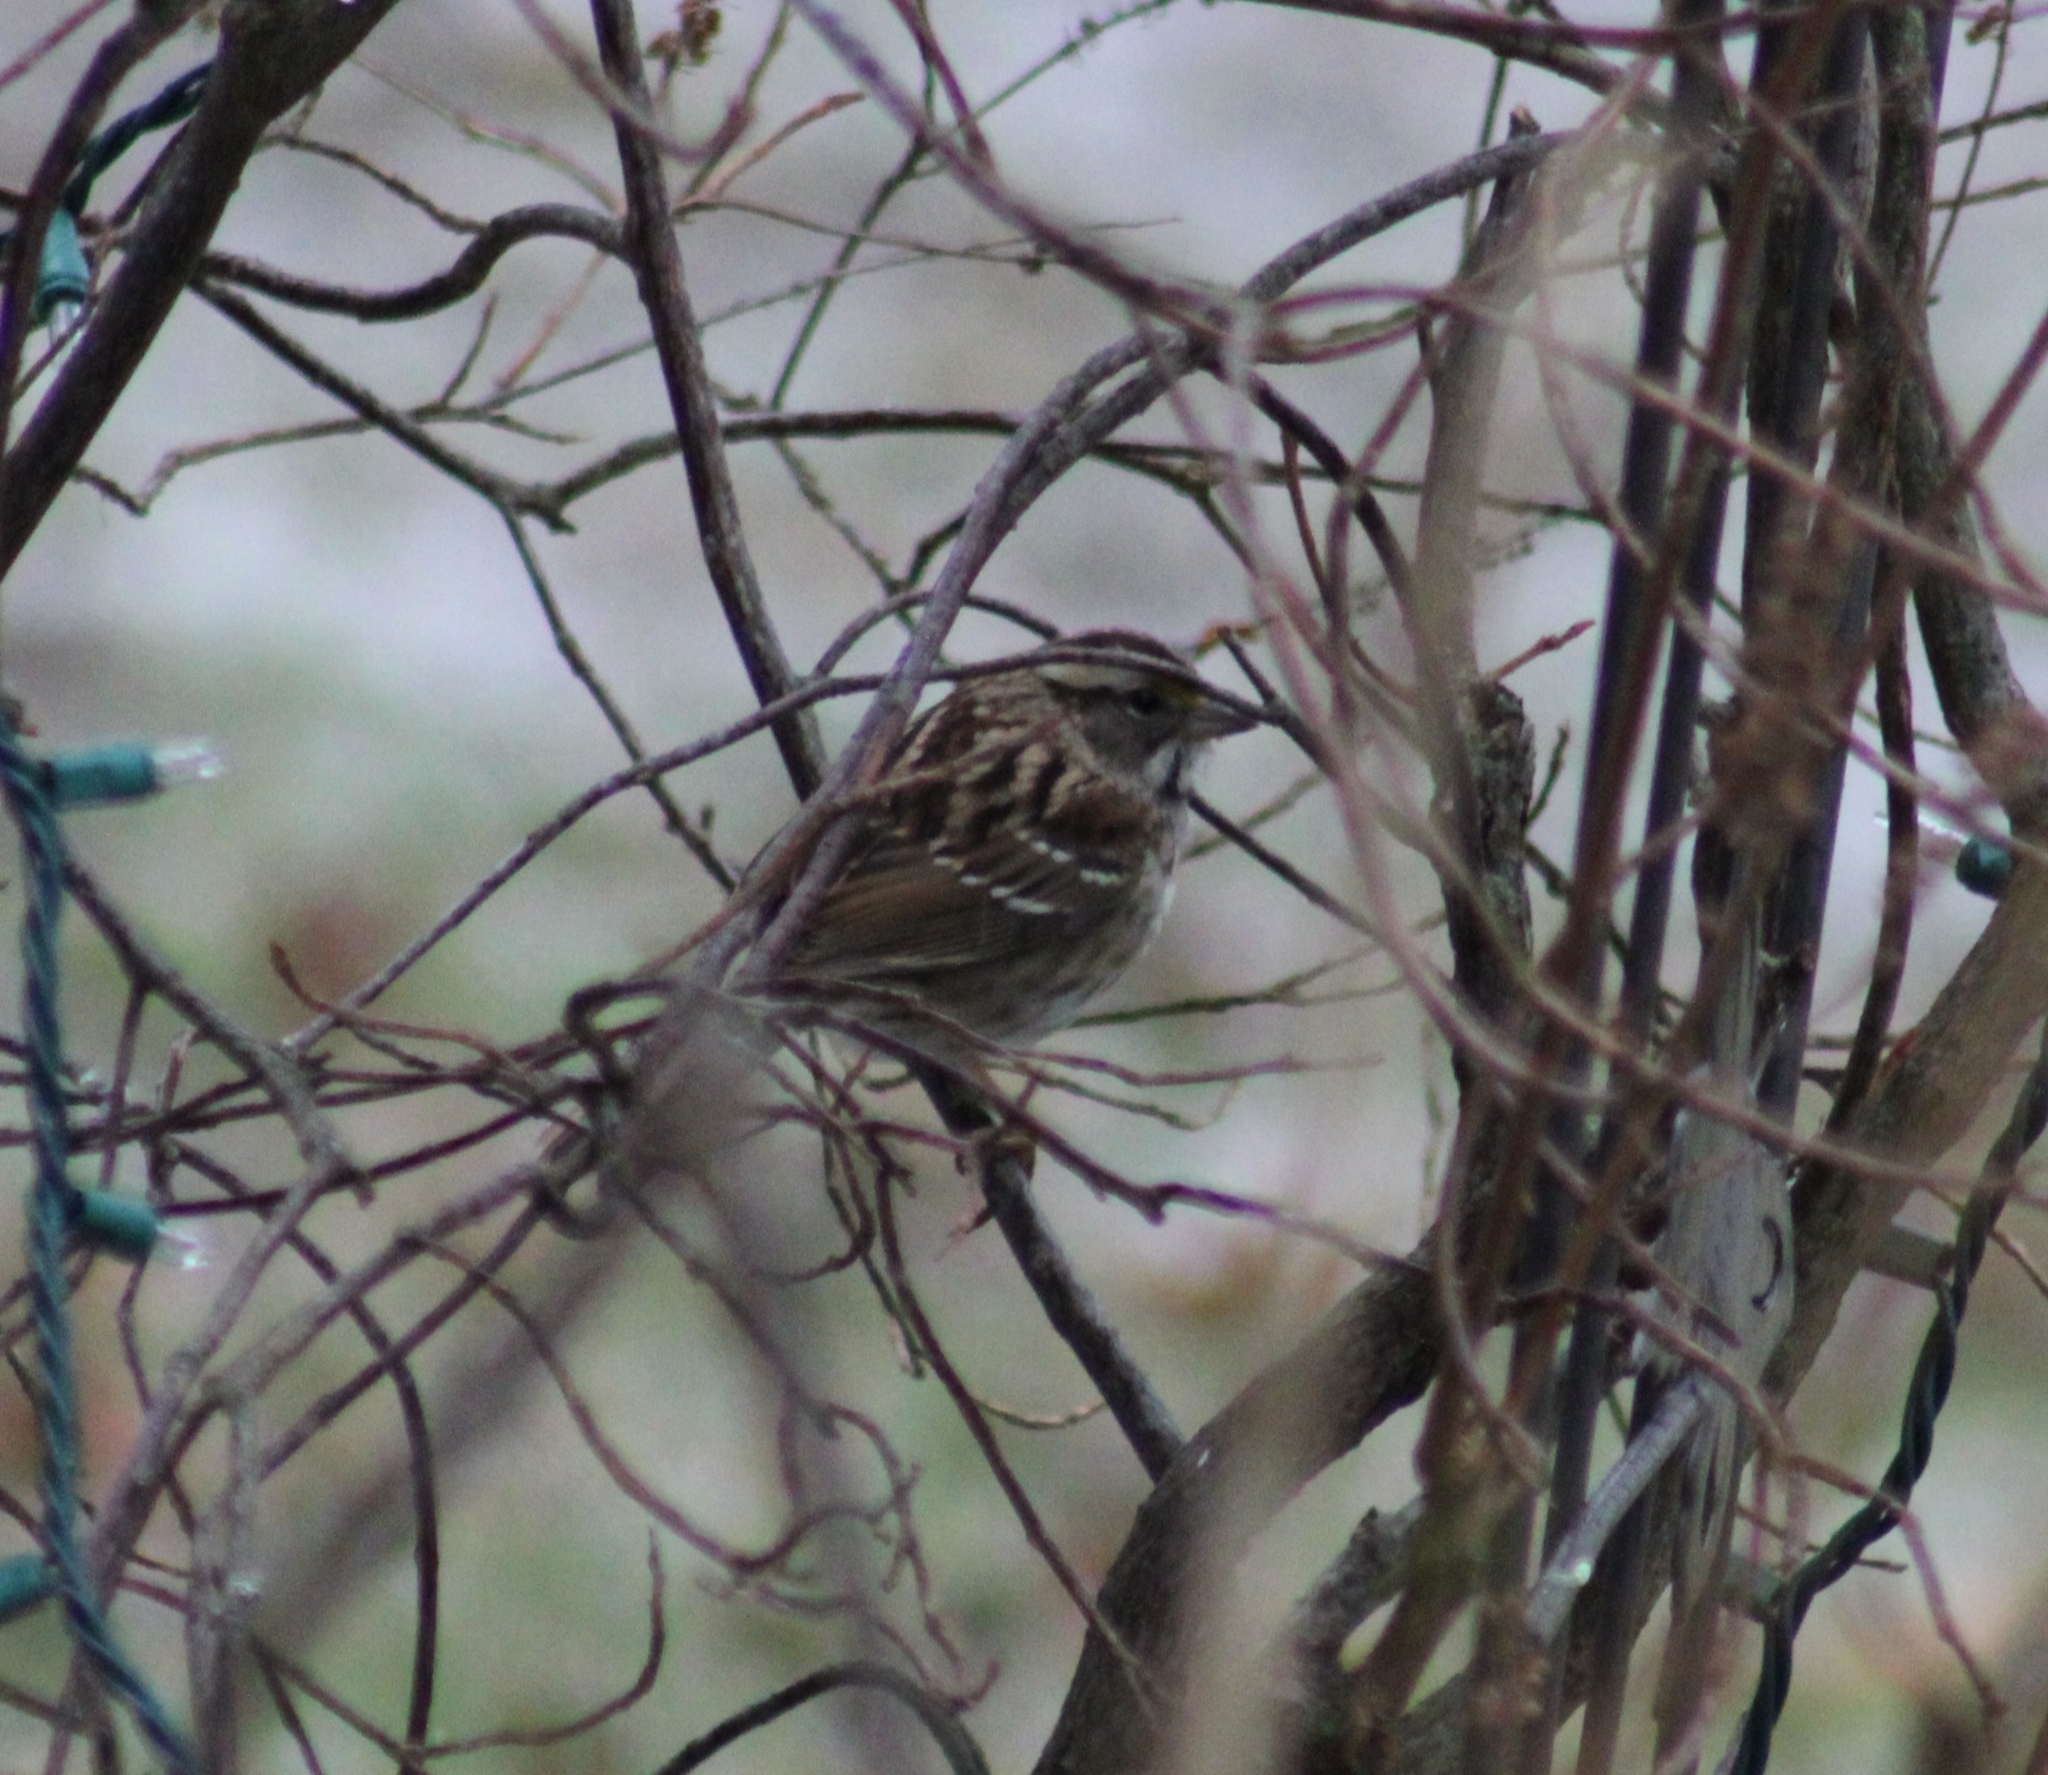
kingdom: Animalia
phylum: Chordata
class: Aves
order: Passeriformes
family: Passerellidae
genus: Zonotrichia
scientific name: Zonotrichia albicollis
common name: White-throated sparrow
